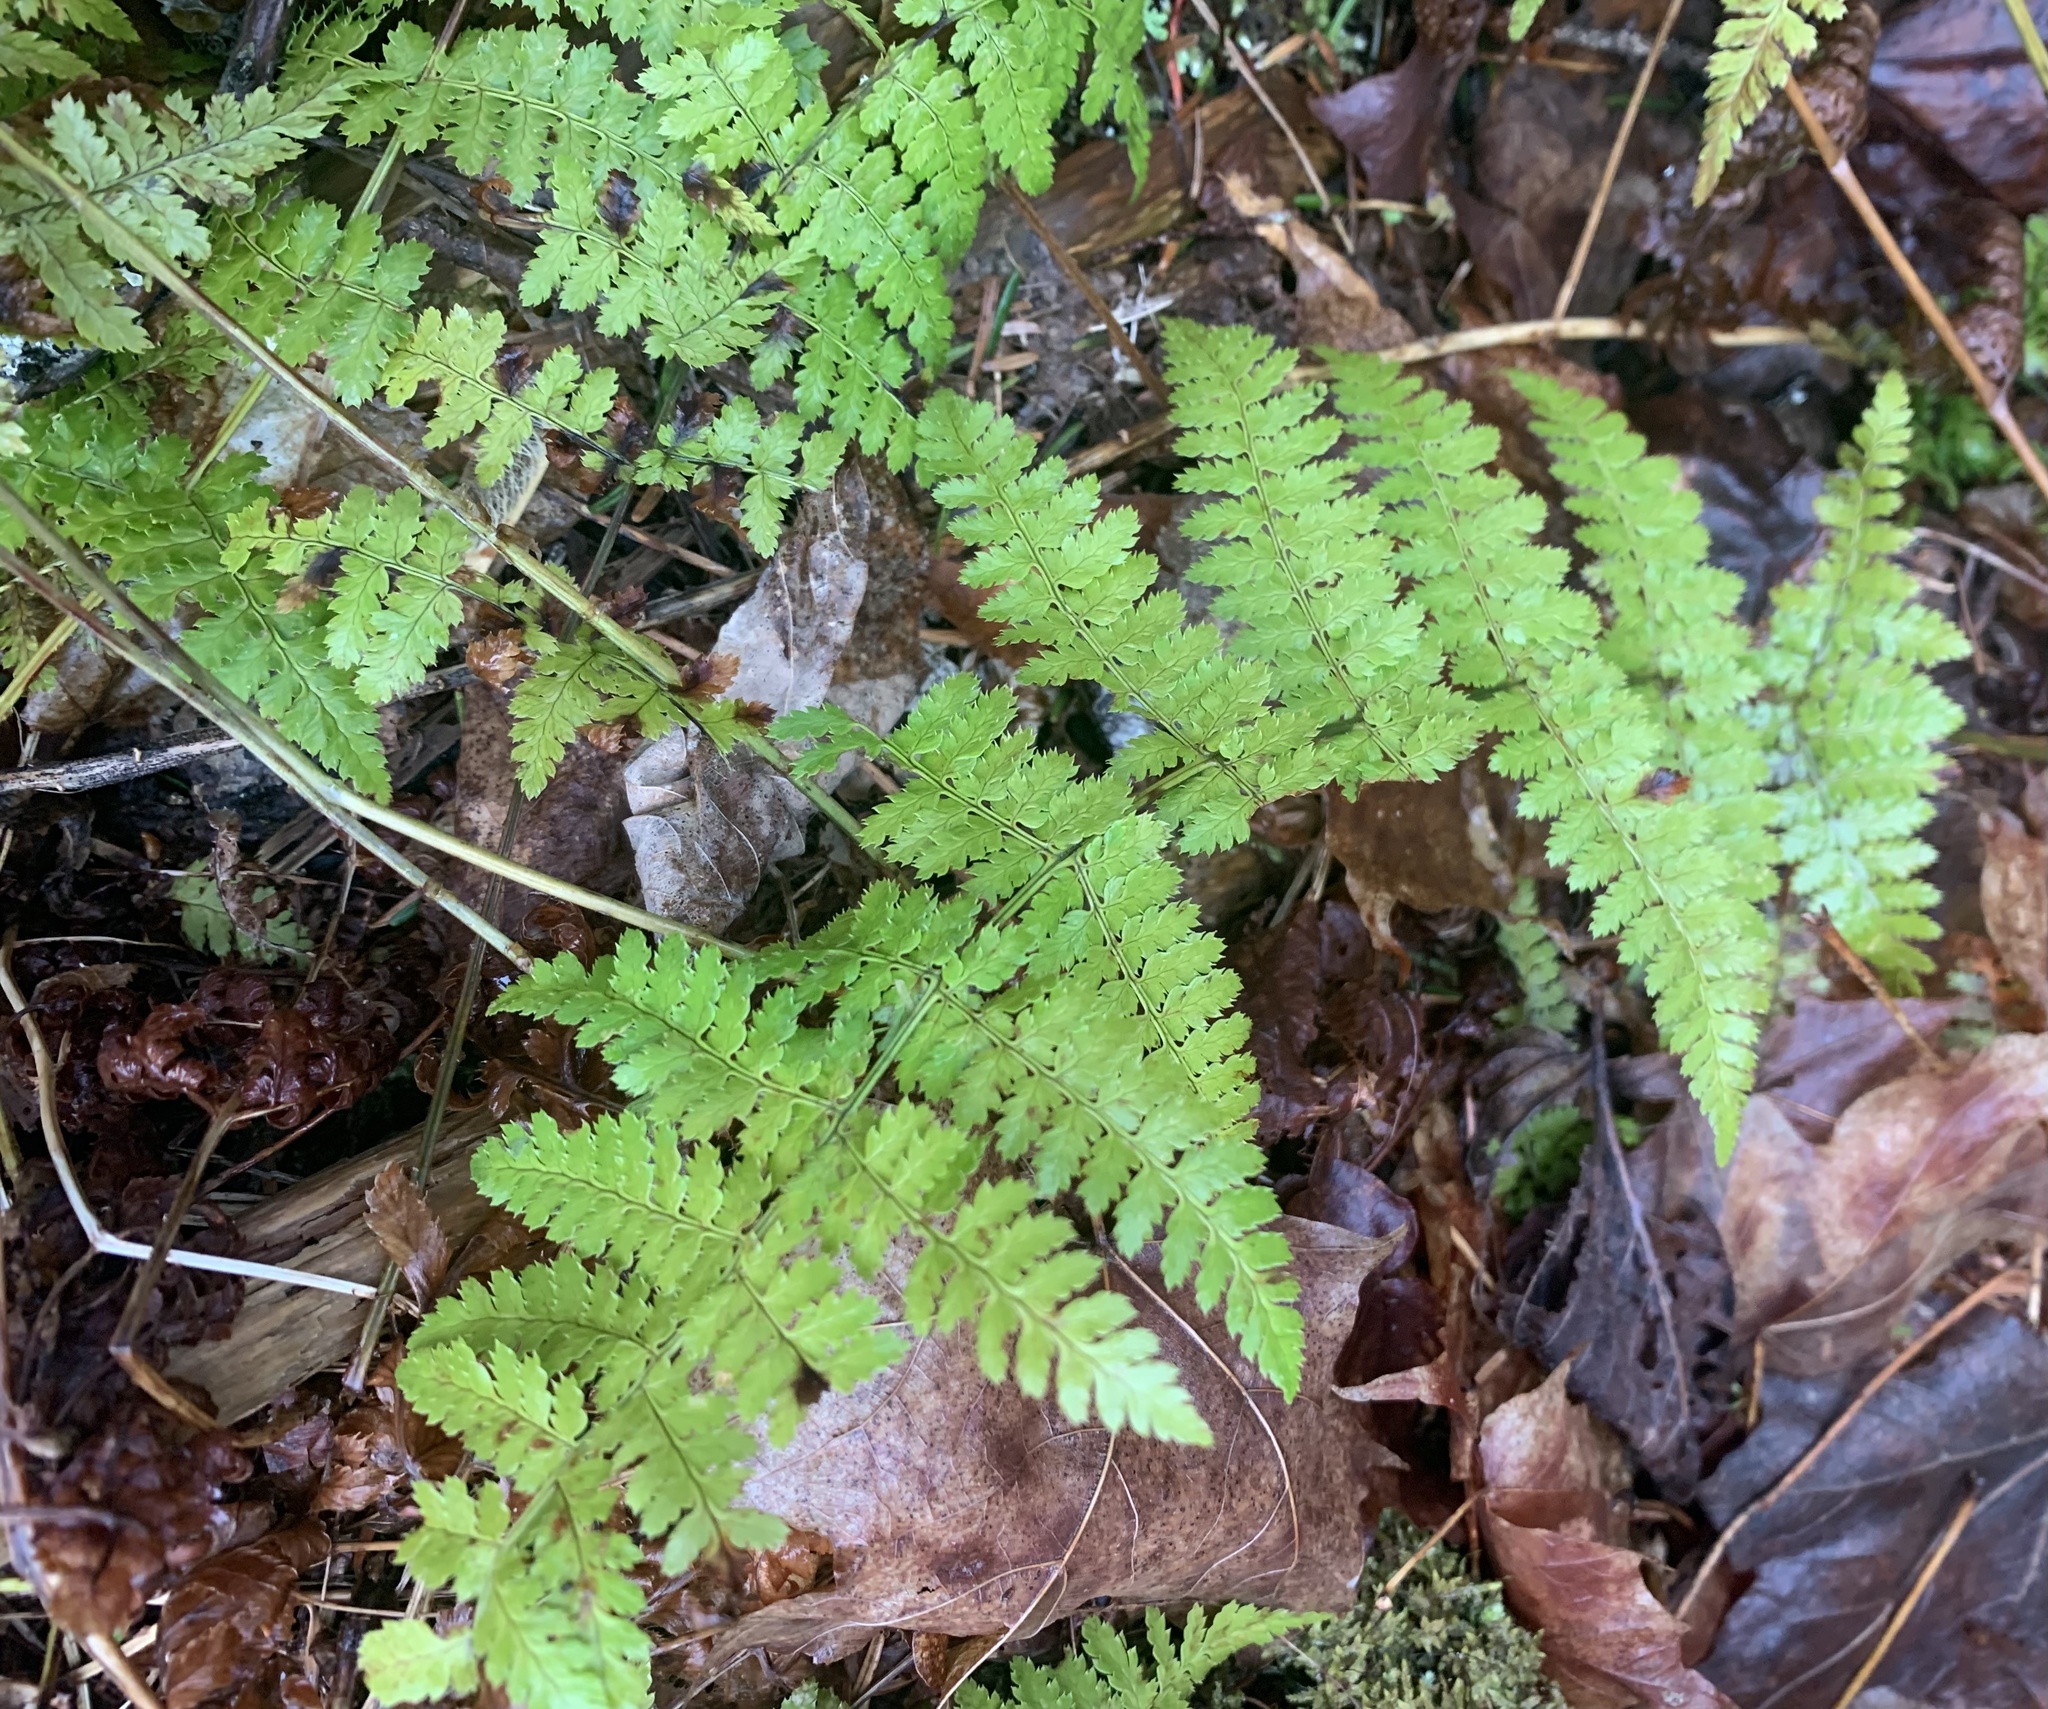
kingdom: Plantae
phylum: Tracheophyta
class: Polypodiopsida
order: Polypodiales
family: Dryopteridaceae
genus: Dryopteris
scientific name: Dryopteris intermedia
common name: Evergreen wood fern
